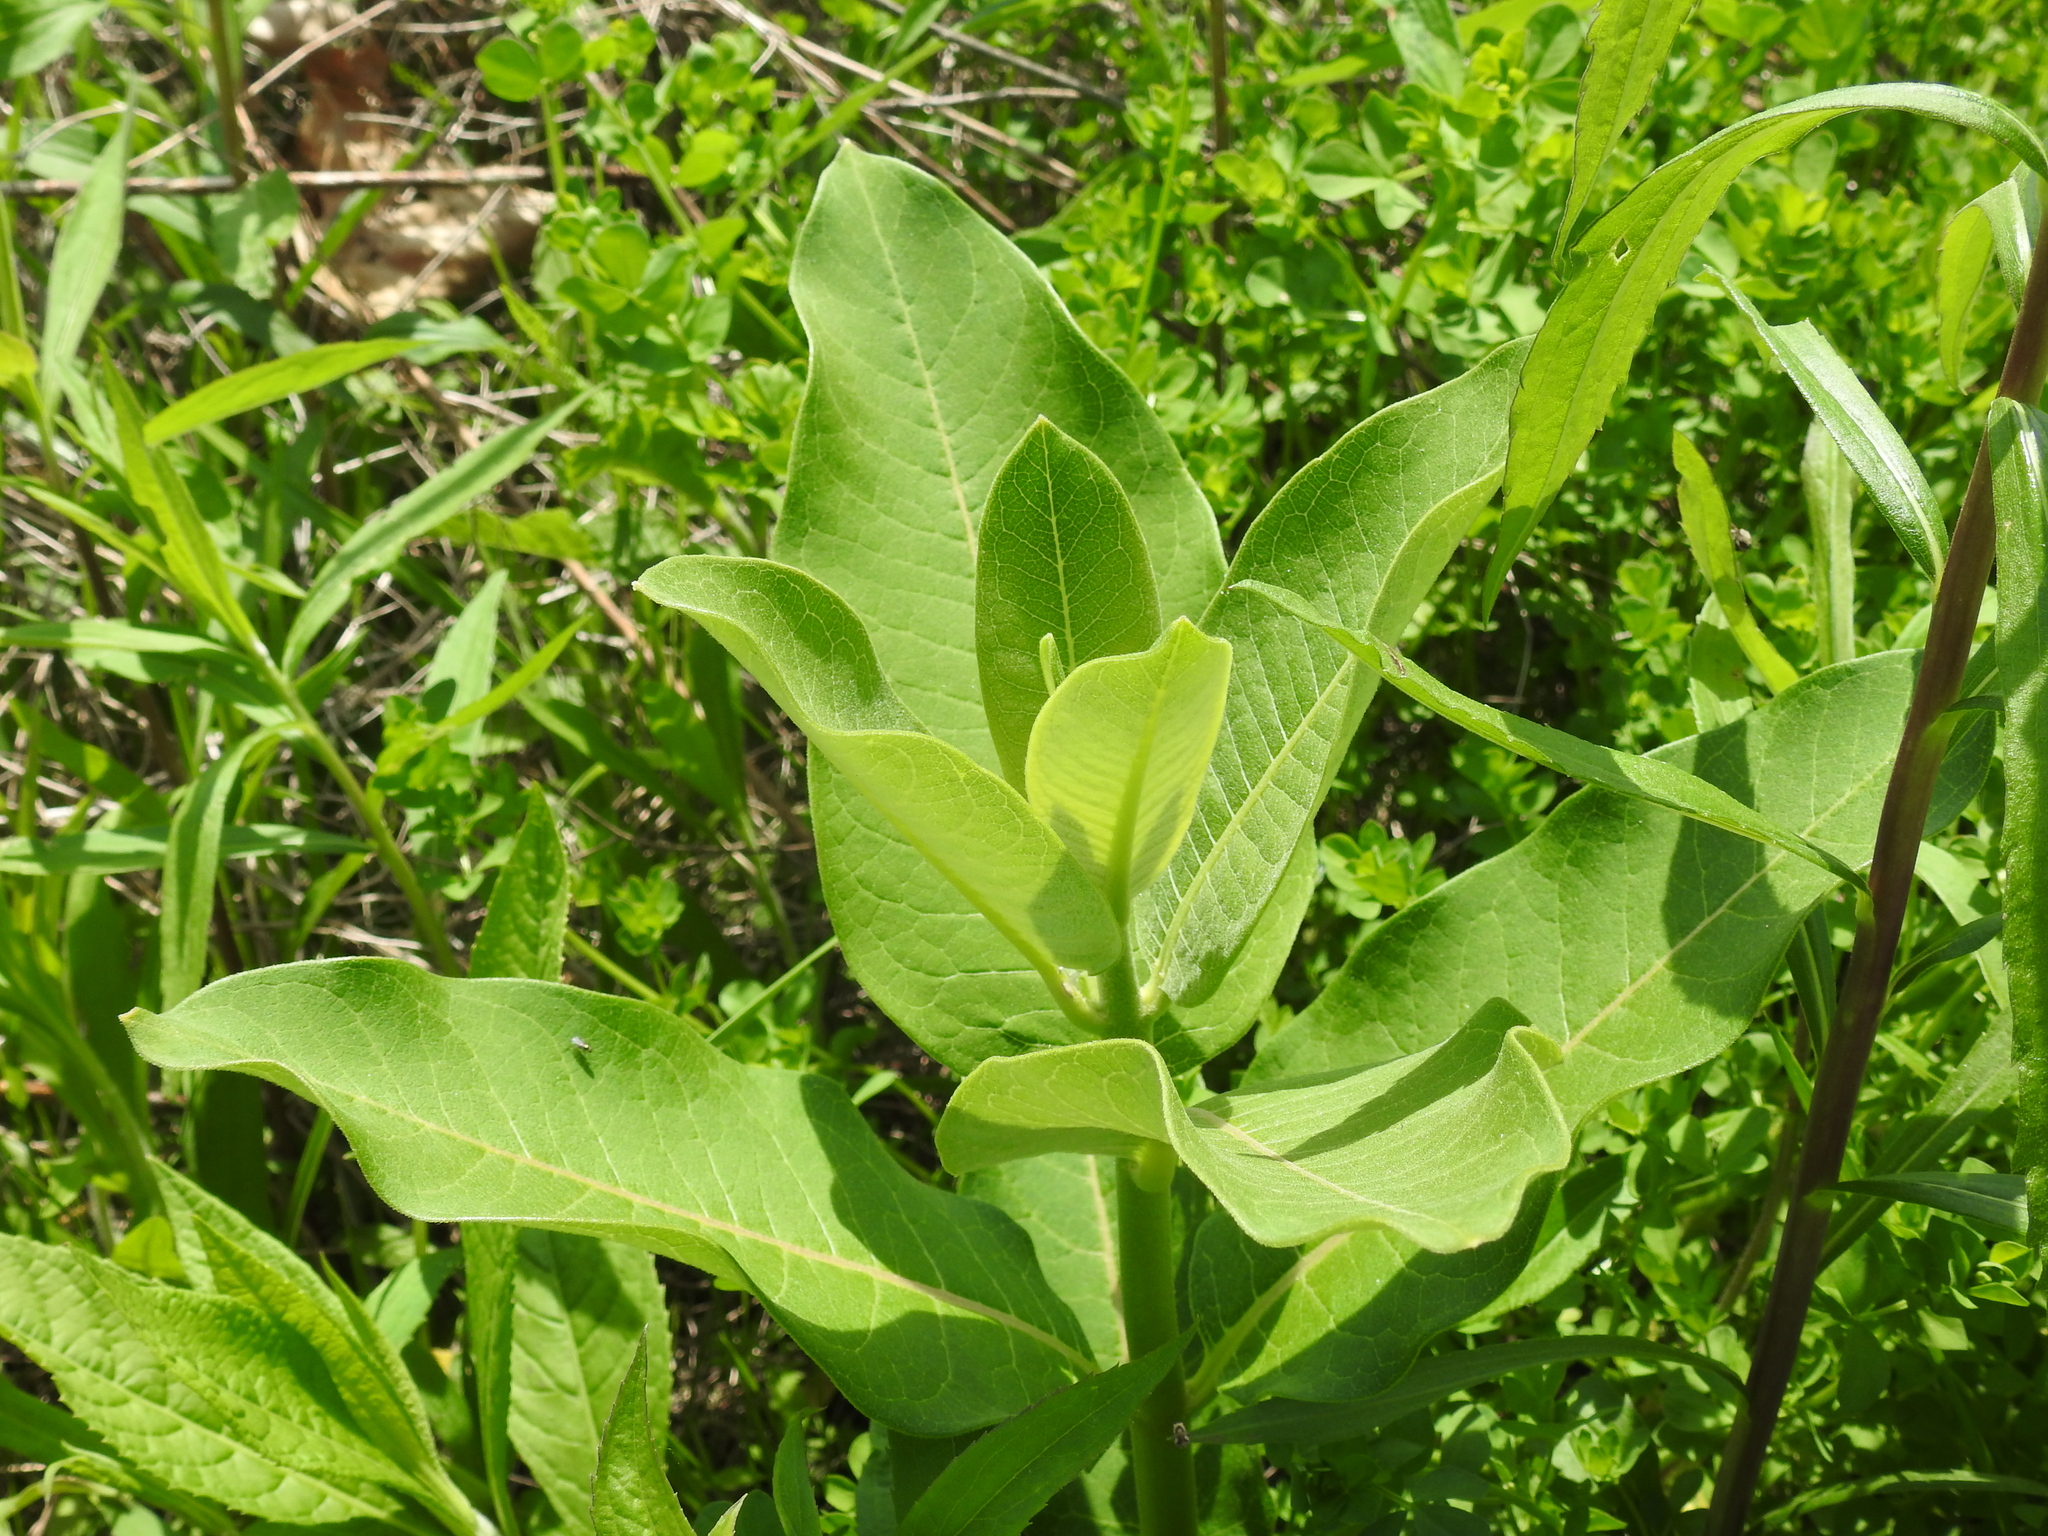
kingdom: Plantae
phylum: Tracheophyta
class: Magnoliopsida
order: Gentianales
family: Apocynaceae
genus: Asclepias
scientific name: Asclepias syriaca
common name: Common milkweed
